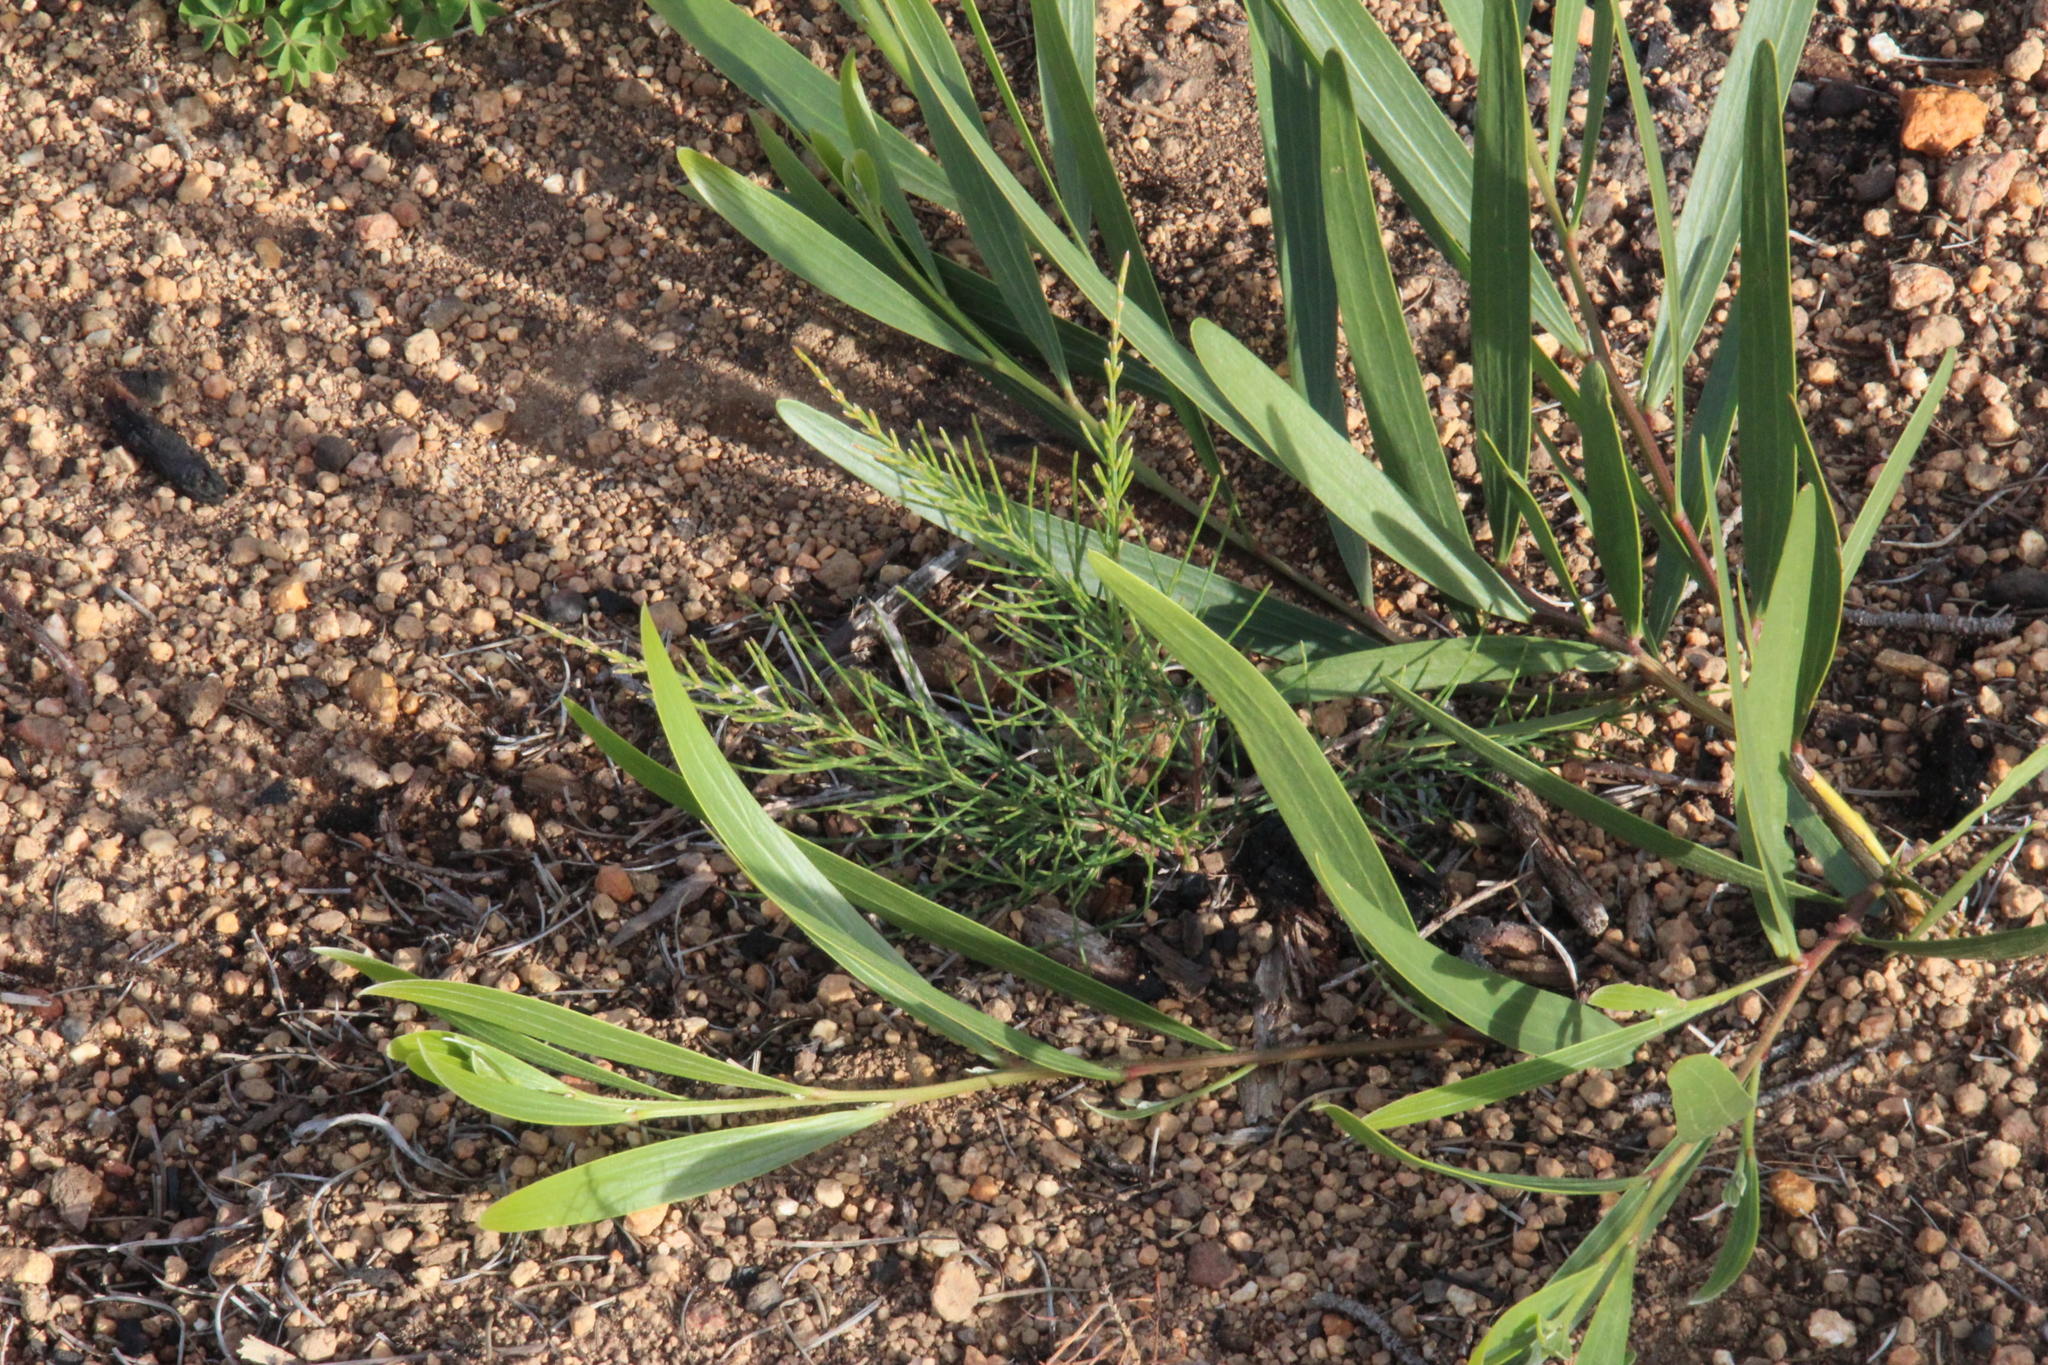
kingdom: Plantae
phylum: Tracheophyta
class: Magnoliopsida
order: Fagales
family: Casuarinaceae
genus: Allocasuarina
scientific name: Allocasuarina littoralis
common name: Black she-oak
